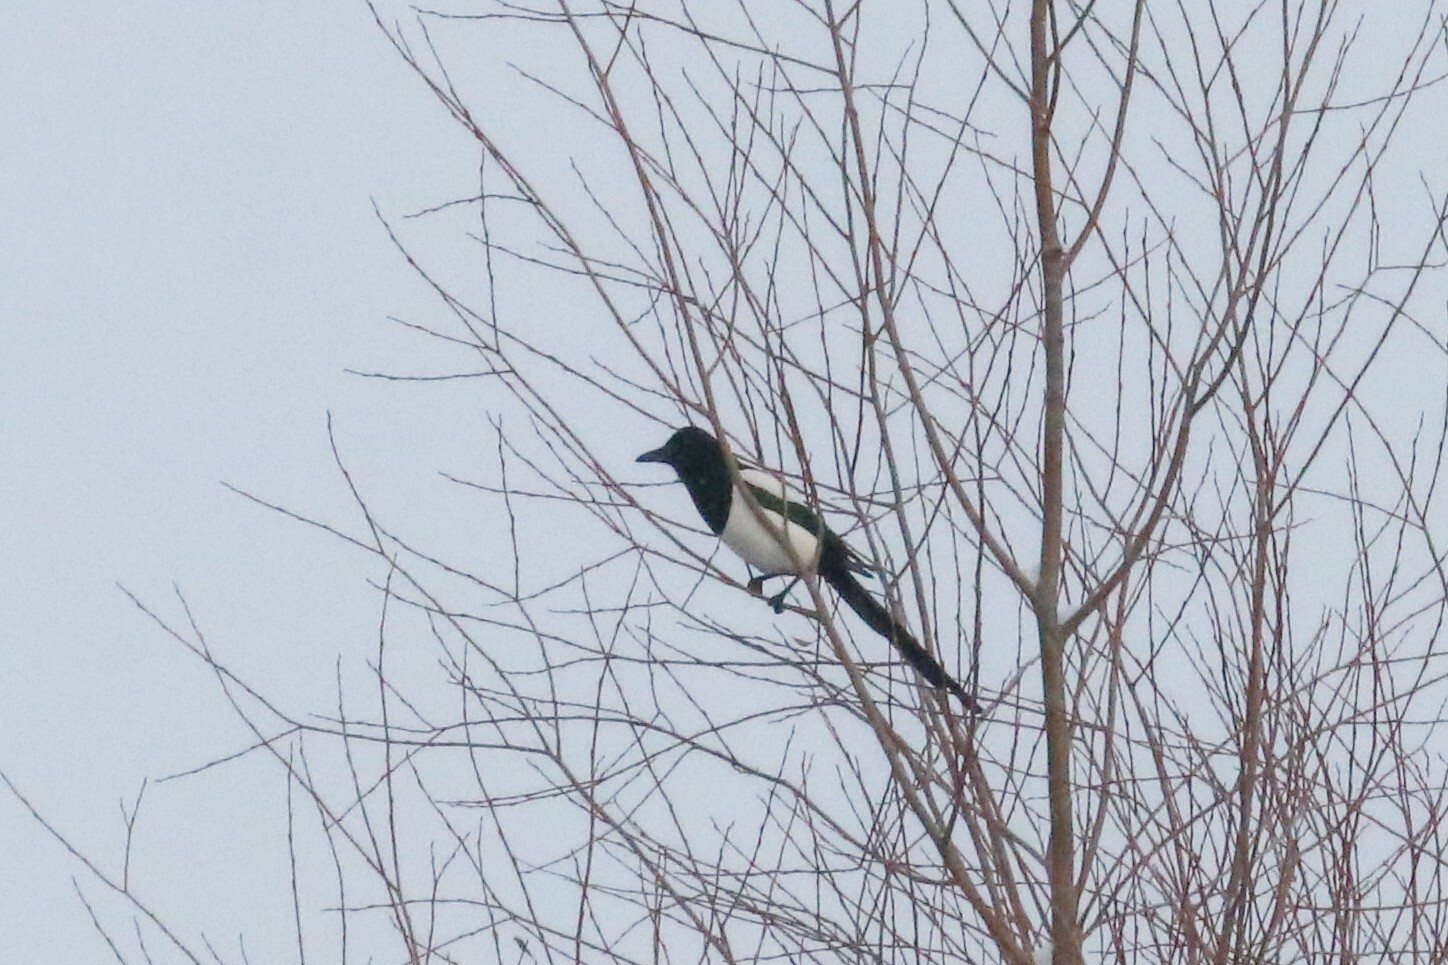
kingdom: Animalia
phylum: Chordata
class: Aves
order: Passeriformes
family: Corvidae
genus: Pica
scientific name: Pica pica
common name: Eurasian magpie
